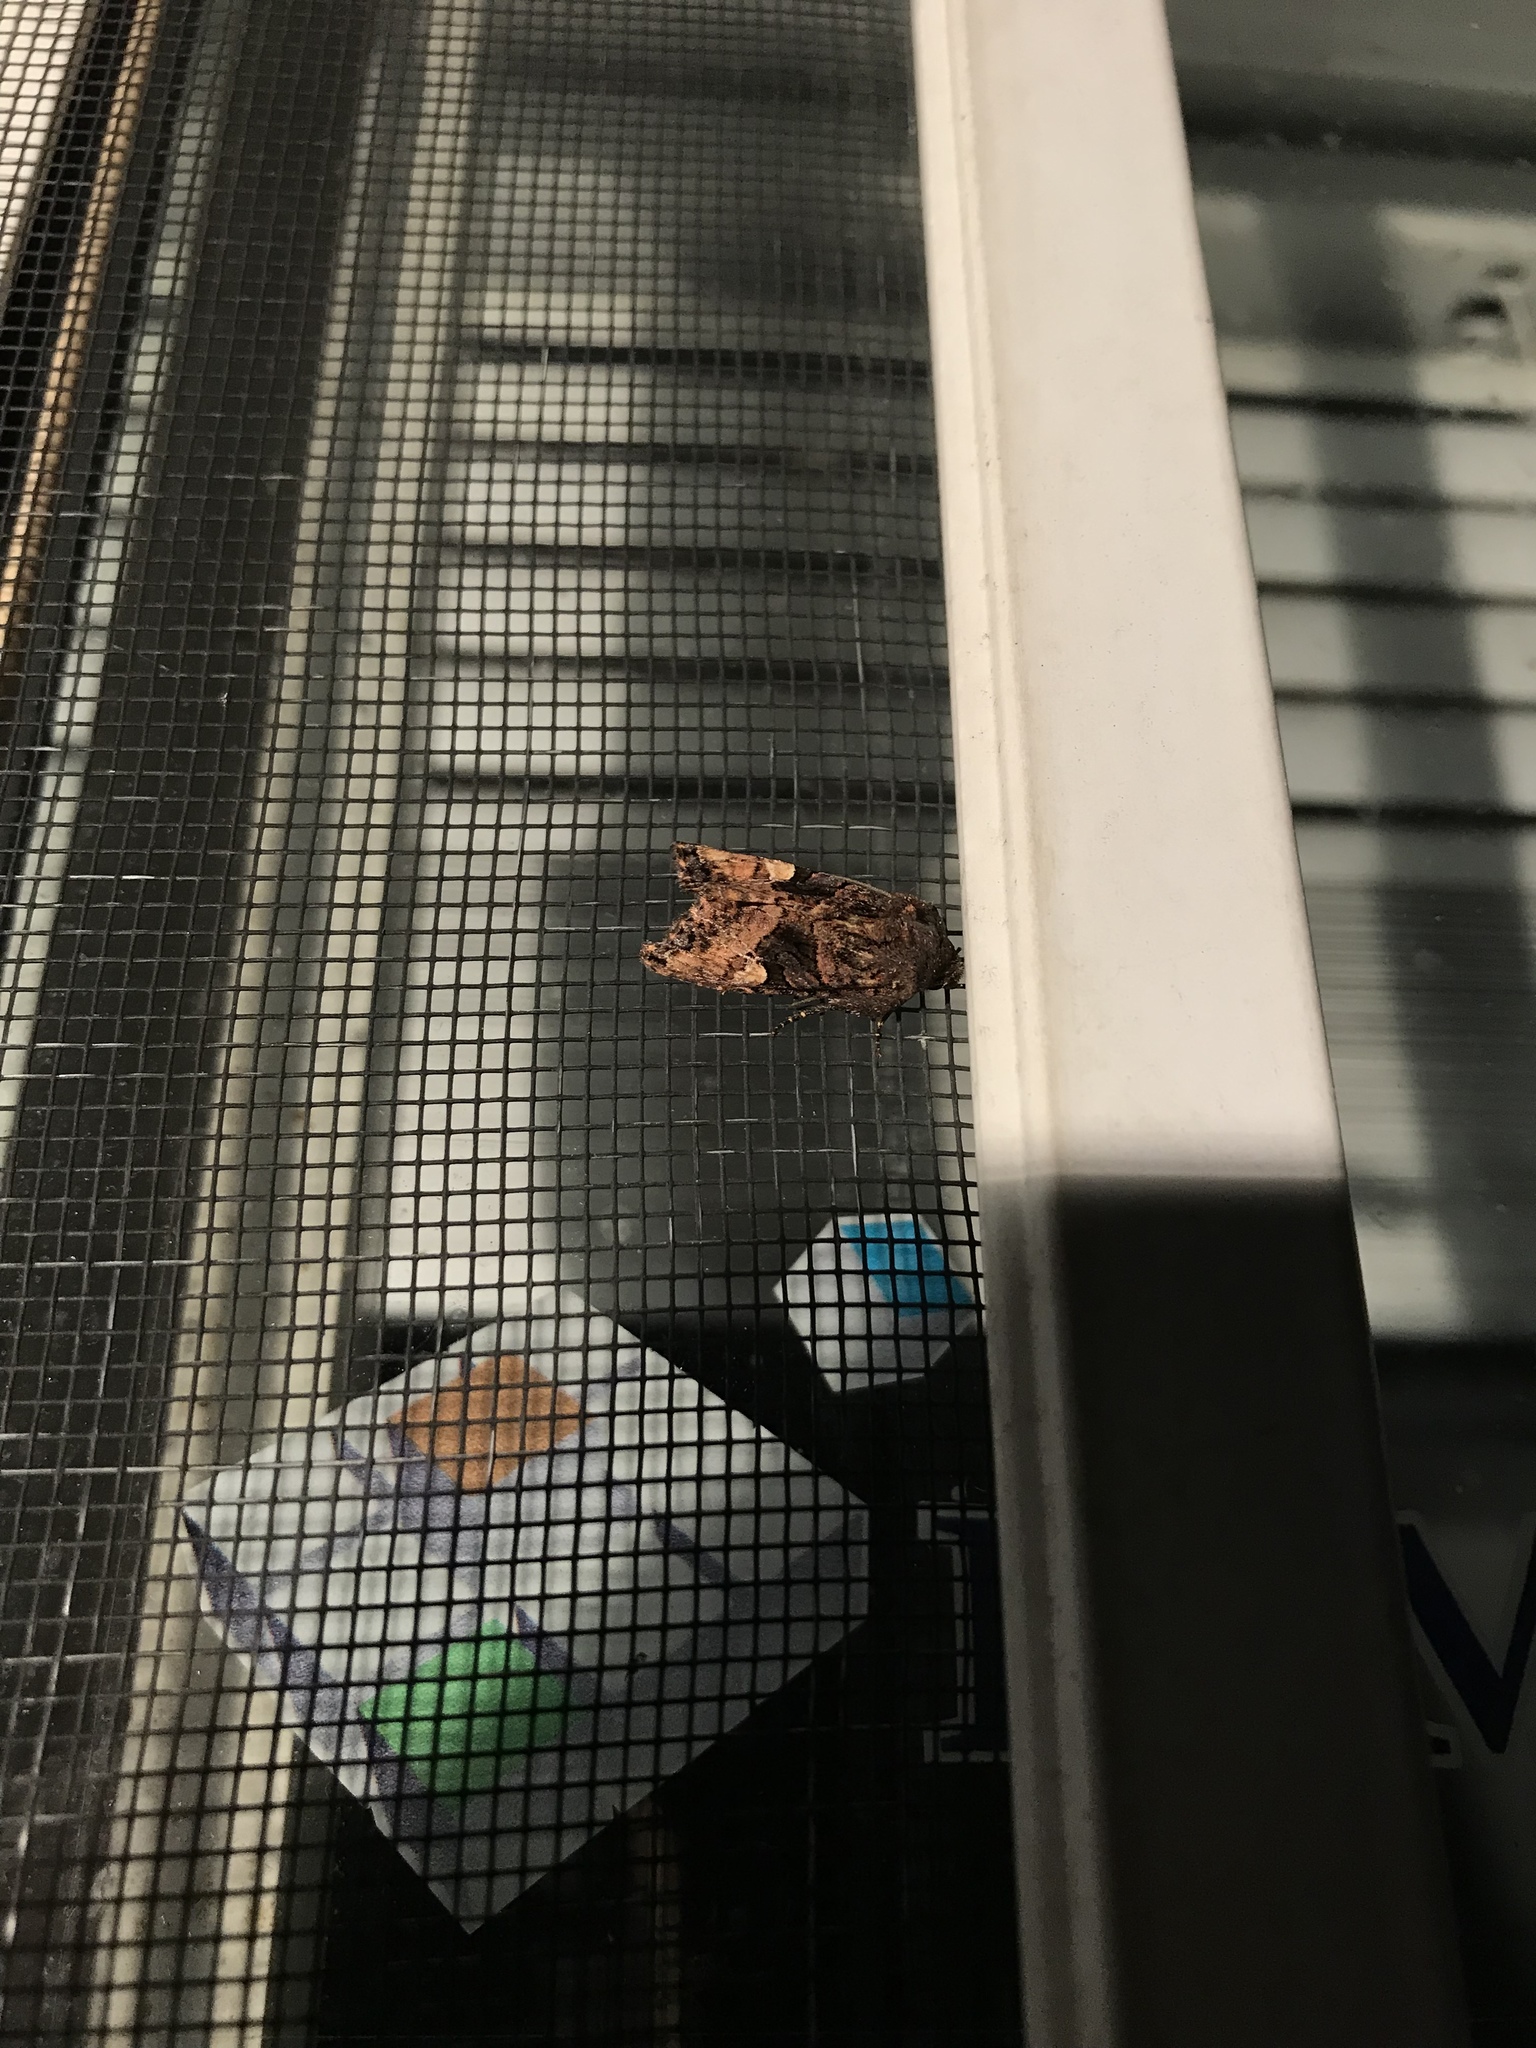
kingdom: Animalia
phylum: Arthropoda
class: Insecta
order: Lepidoptera
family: Noctuidae
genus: Euplexia
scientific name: Euplexia benesimilis
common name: American angle shades
